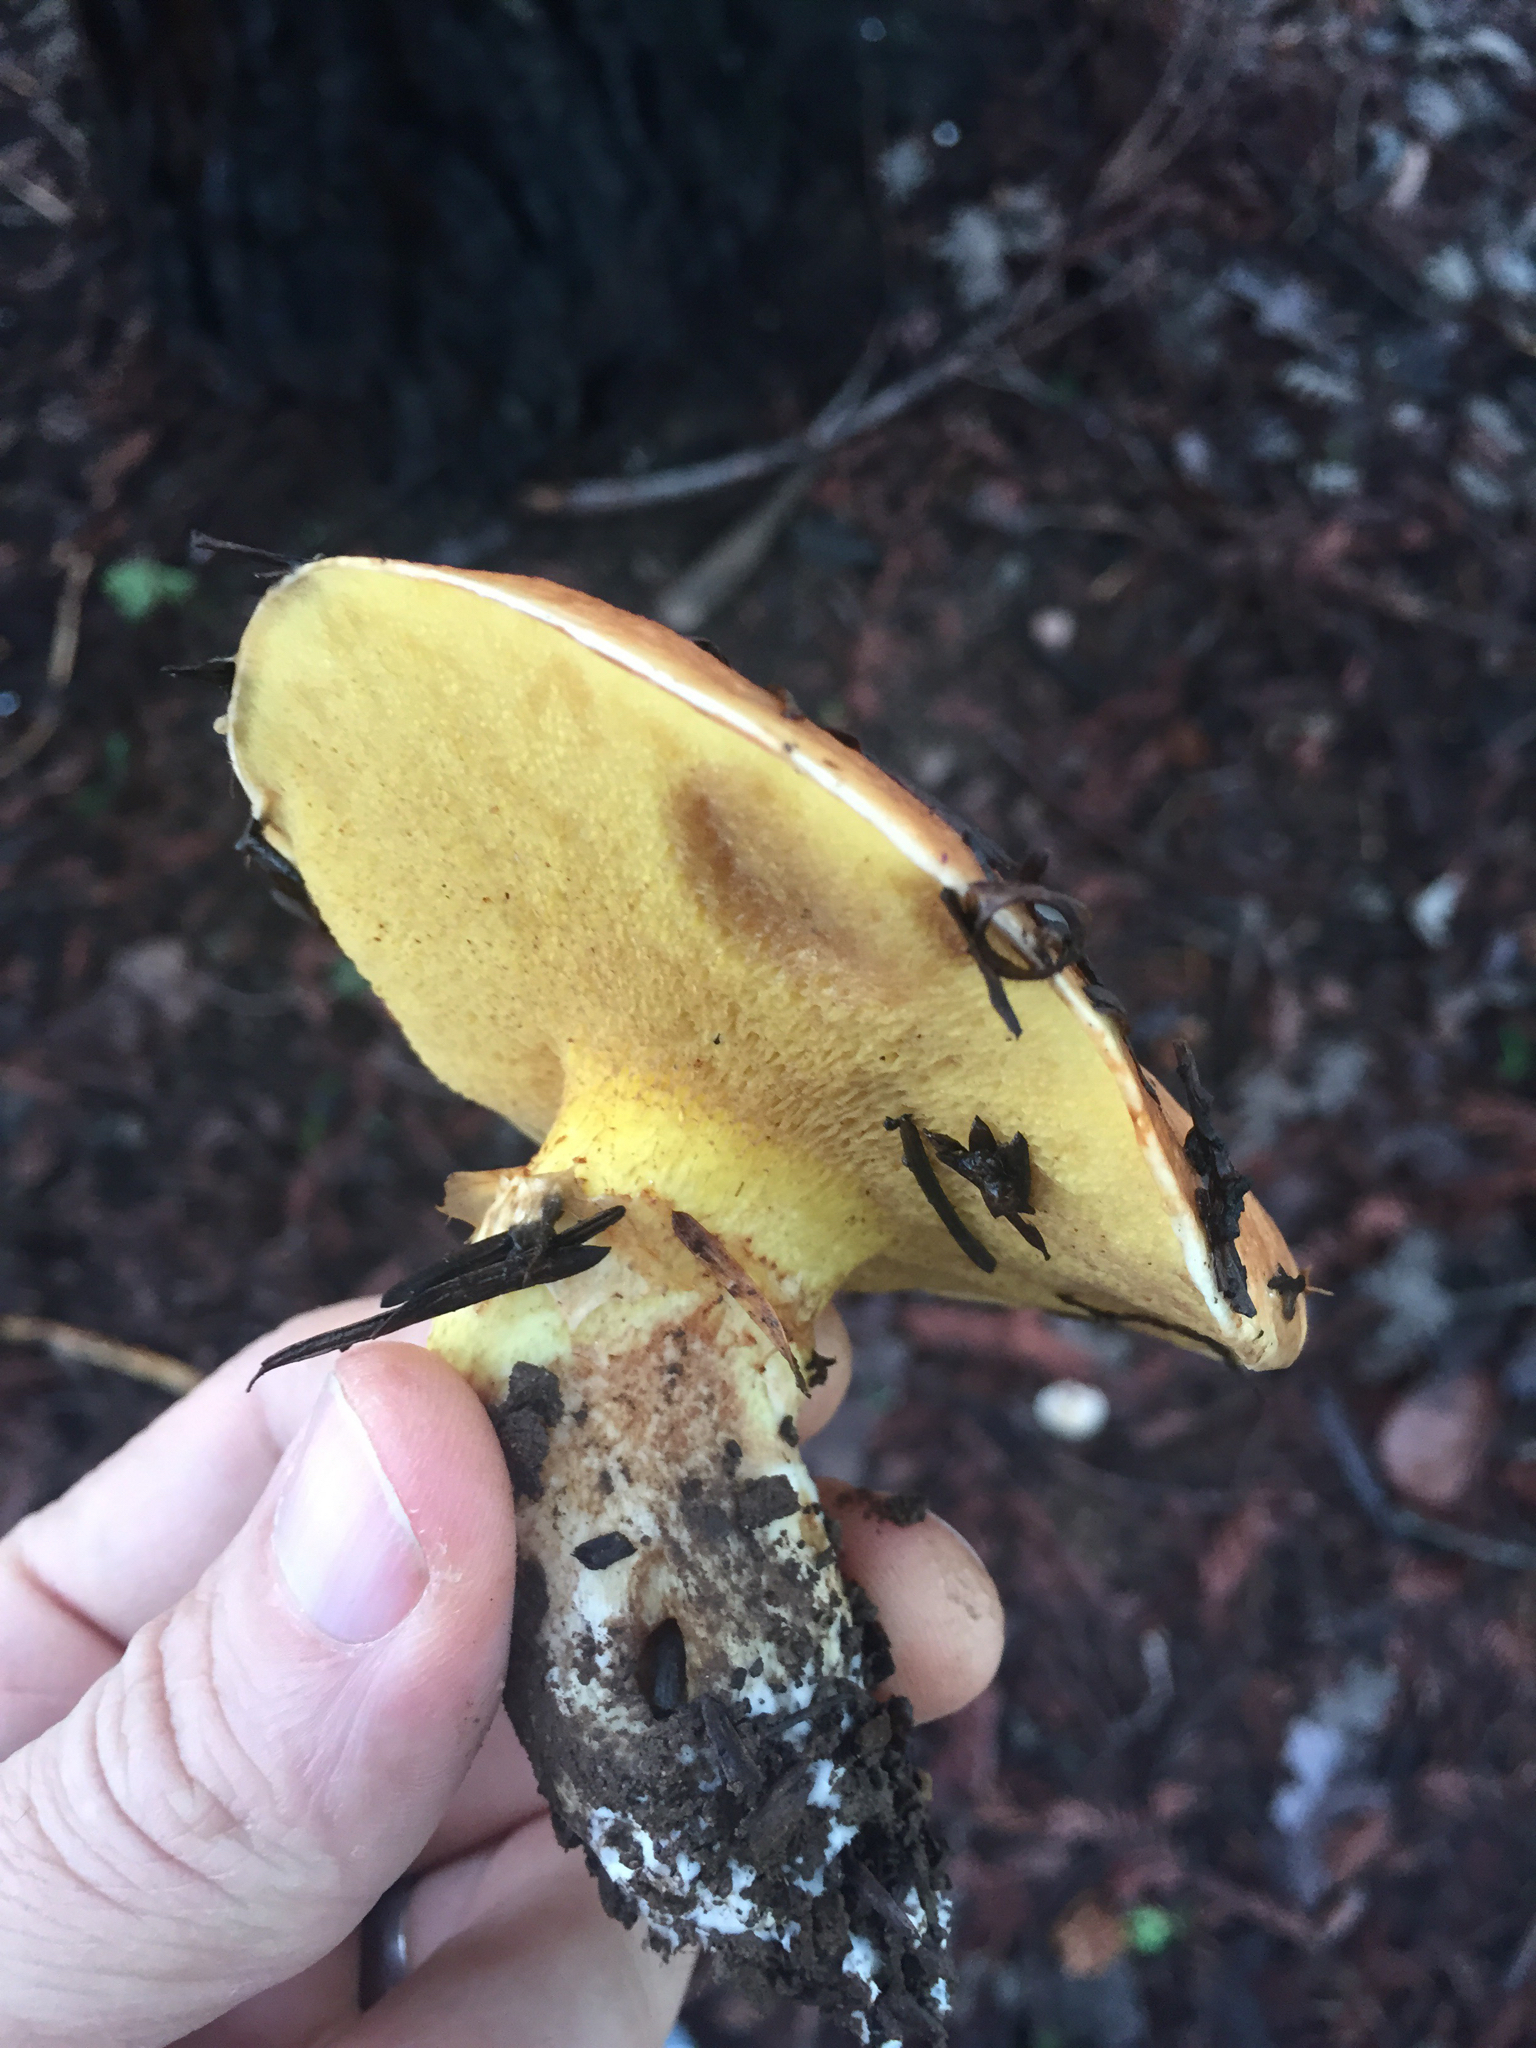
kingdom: Fungi
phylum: Basidiomycota
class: Agaricomycetes
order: Boletales
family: Suillaceae
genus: Suillus
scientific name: Suillus caerulescens
